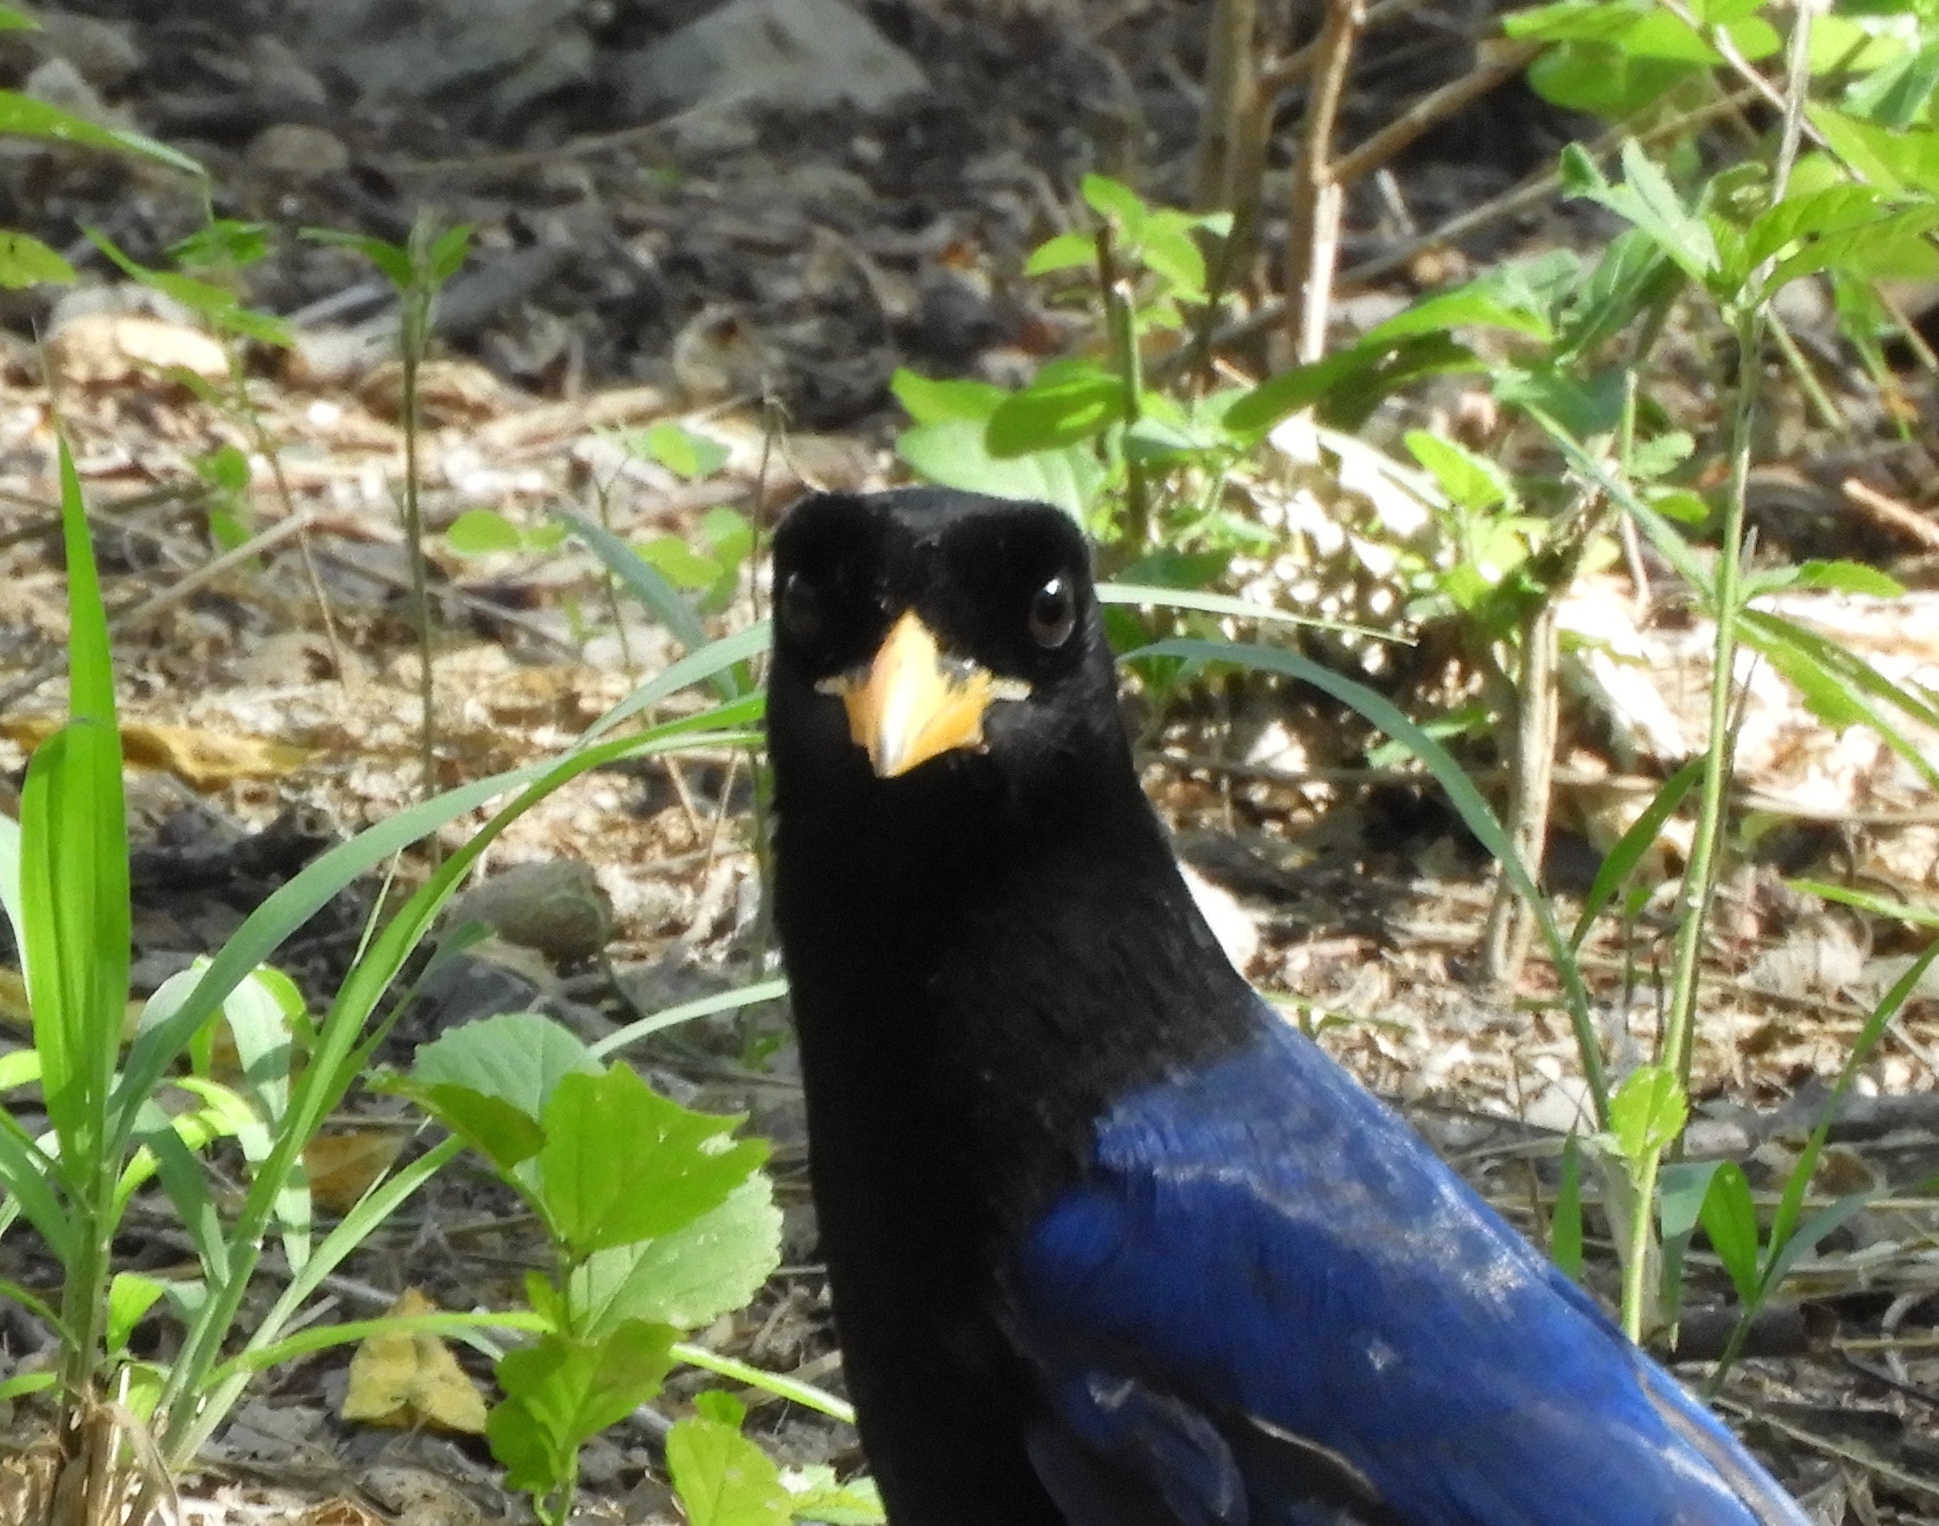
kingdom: Animalia
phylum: Chordata
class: Aves
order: Passeriformes
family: Corvidae
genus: Cyanocorax
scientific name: Cyanocorax beecheii
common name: Purplish-backed jay
